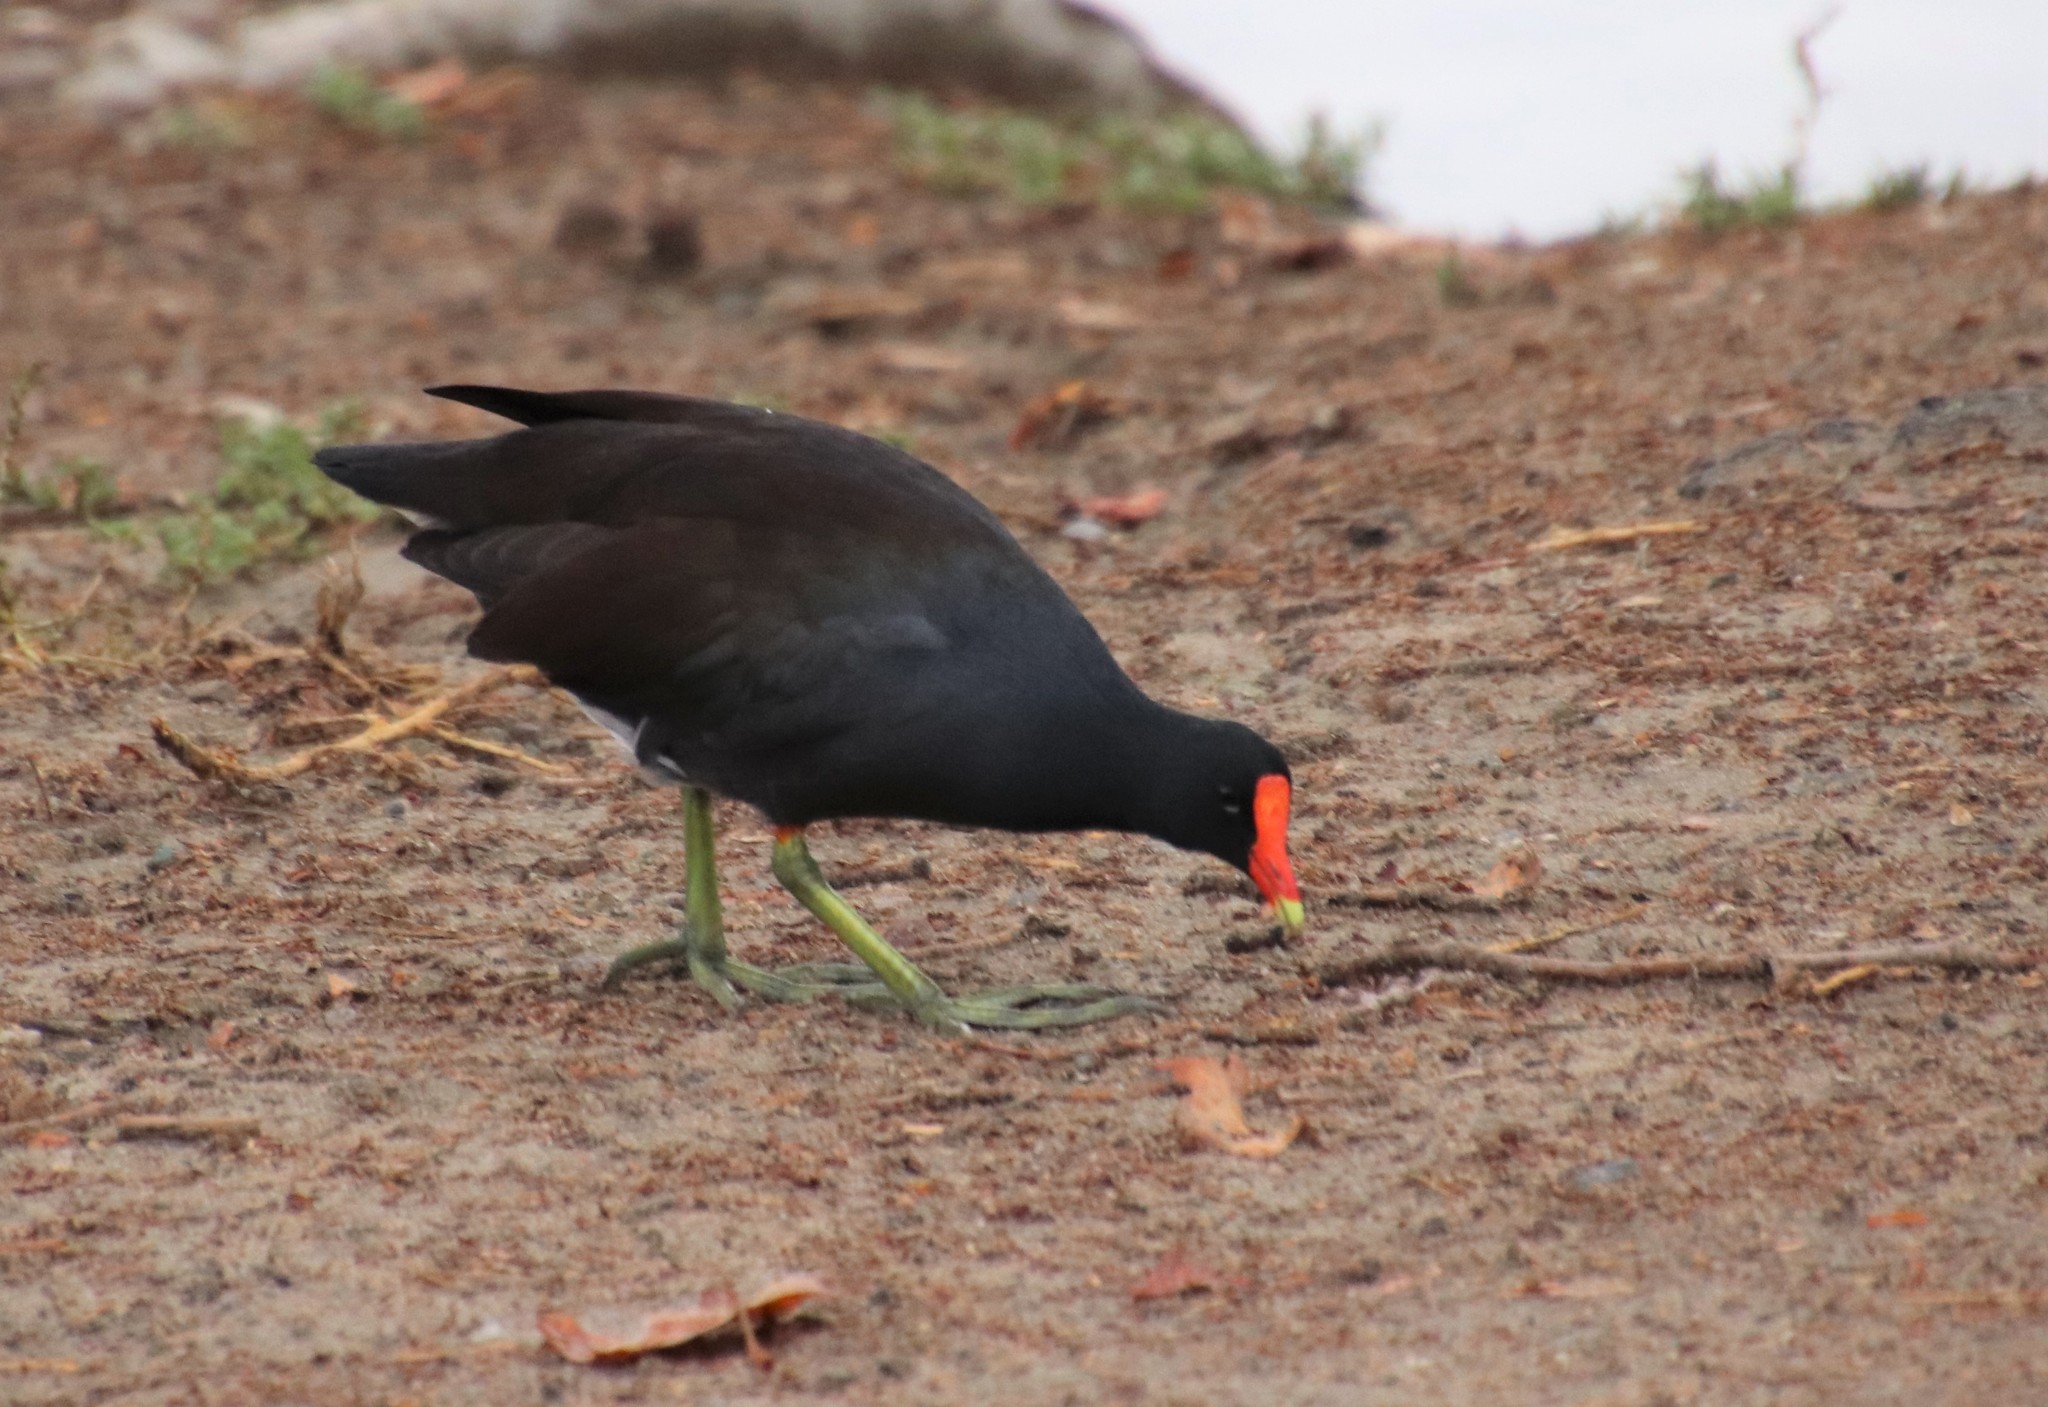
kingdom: Animalia
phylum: Chordata
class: Aves
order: Gruiformes
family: Rallidae
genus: Gallinula
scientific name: Gallinula chloropus
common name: Common moorhen
